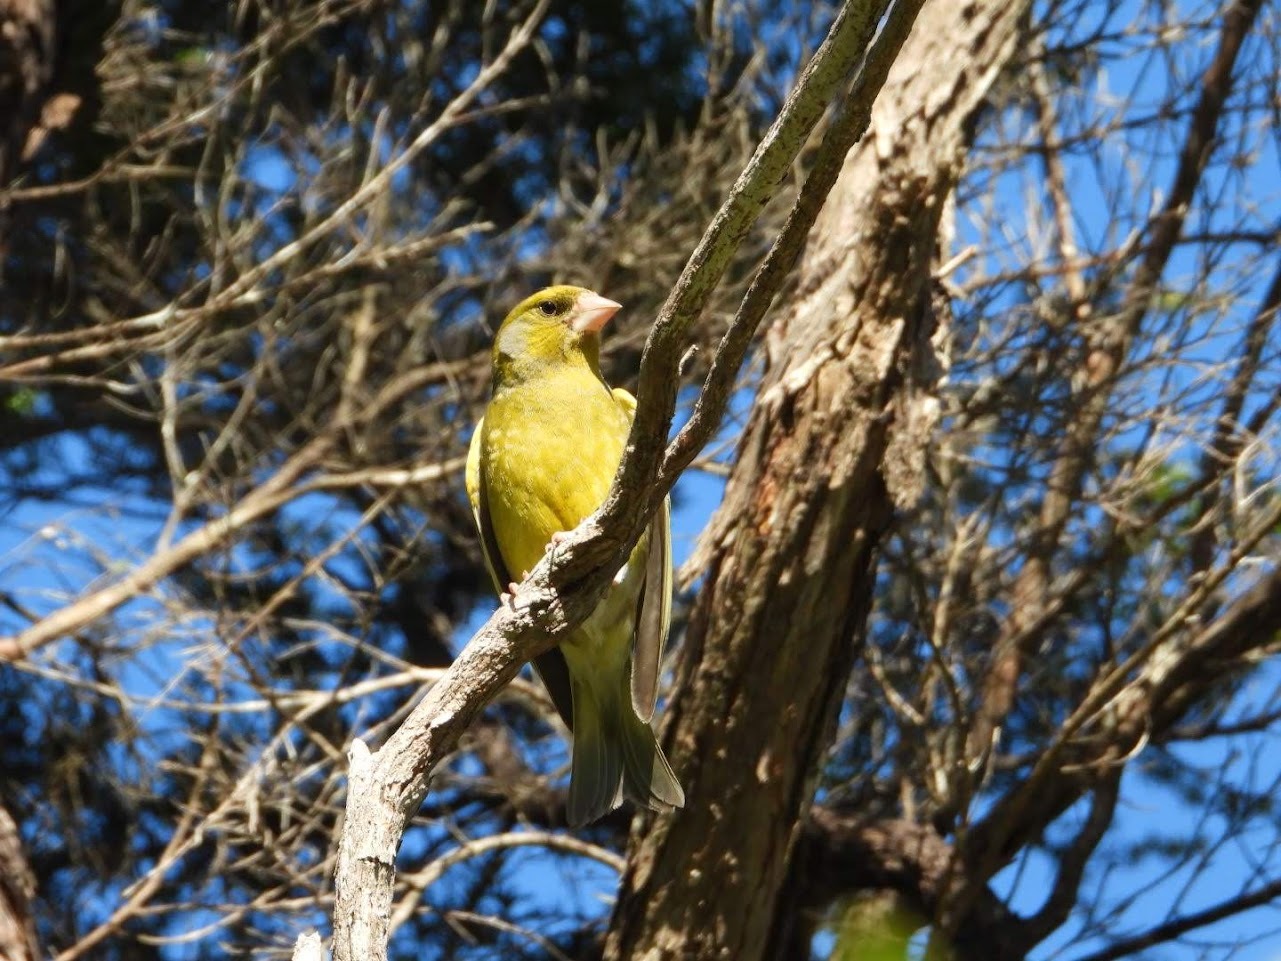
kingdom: Plantae
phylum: Tracheophyta
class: Liliopsida
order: Poales
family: Poaceae
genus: Chloris
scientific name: Chloris chloris
